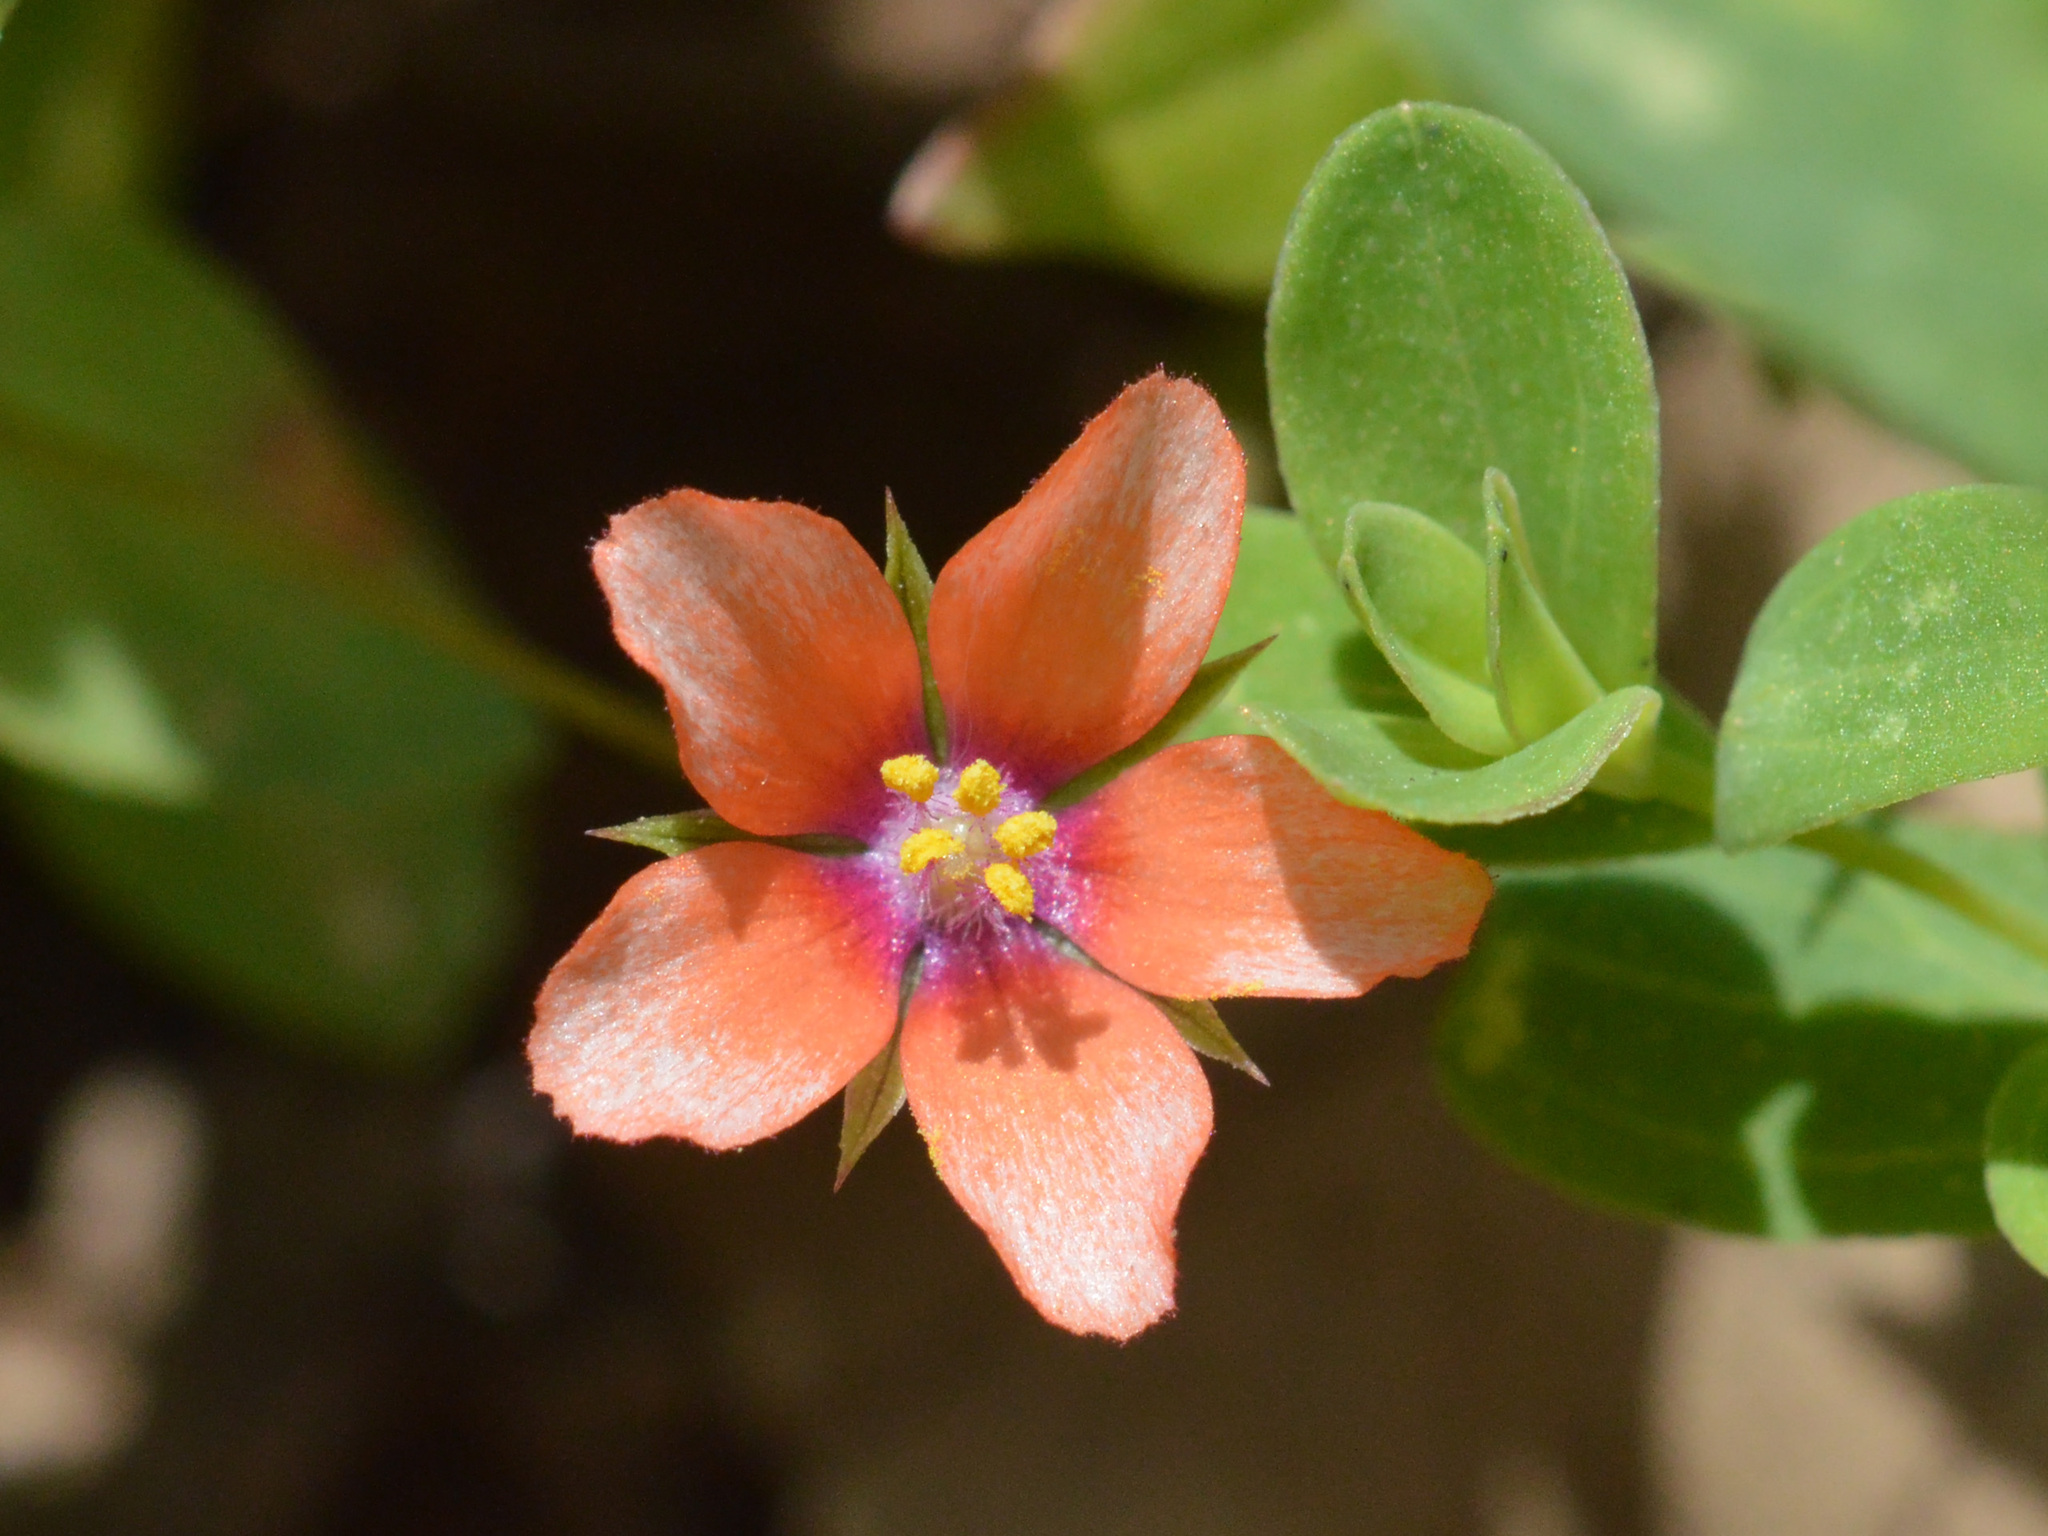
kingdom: Plantae
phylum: Tracheophyta
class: Magnoliopsida
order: Ericales
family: Primulaceae
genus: Lysimachia
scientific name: Lysimachia arvensis
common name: Scarlet pimpernel
